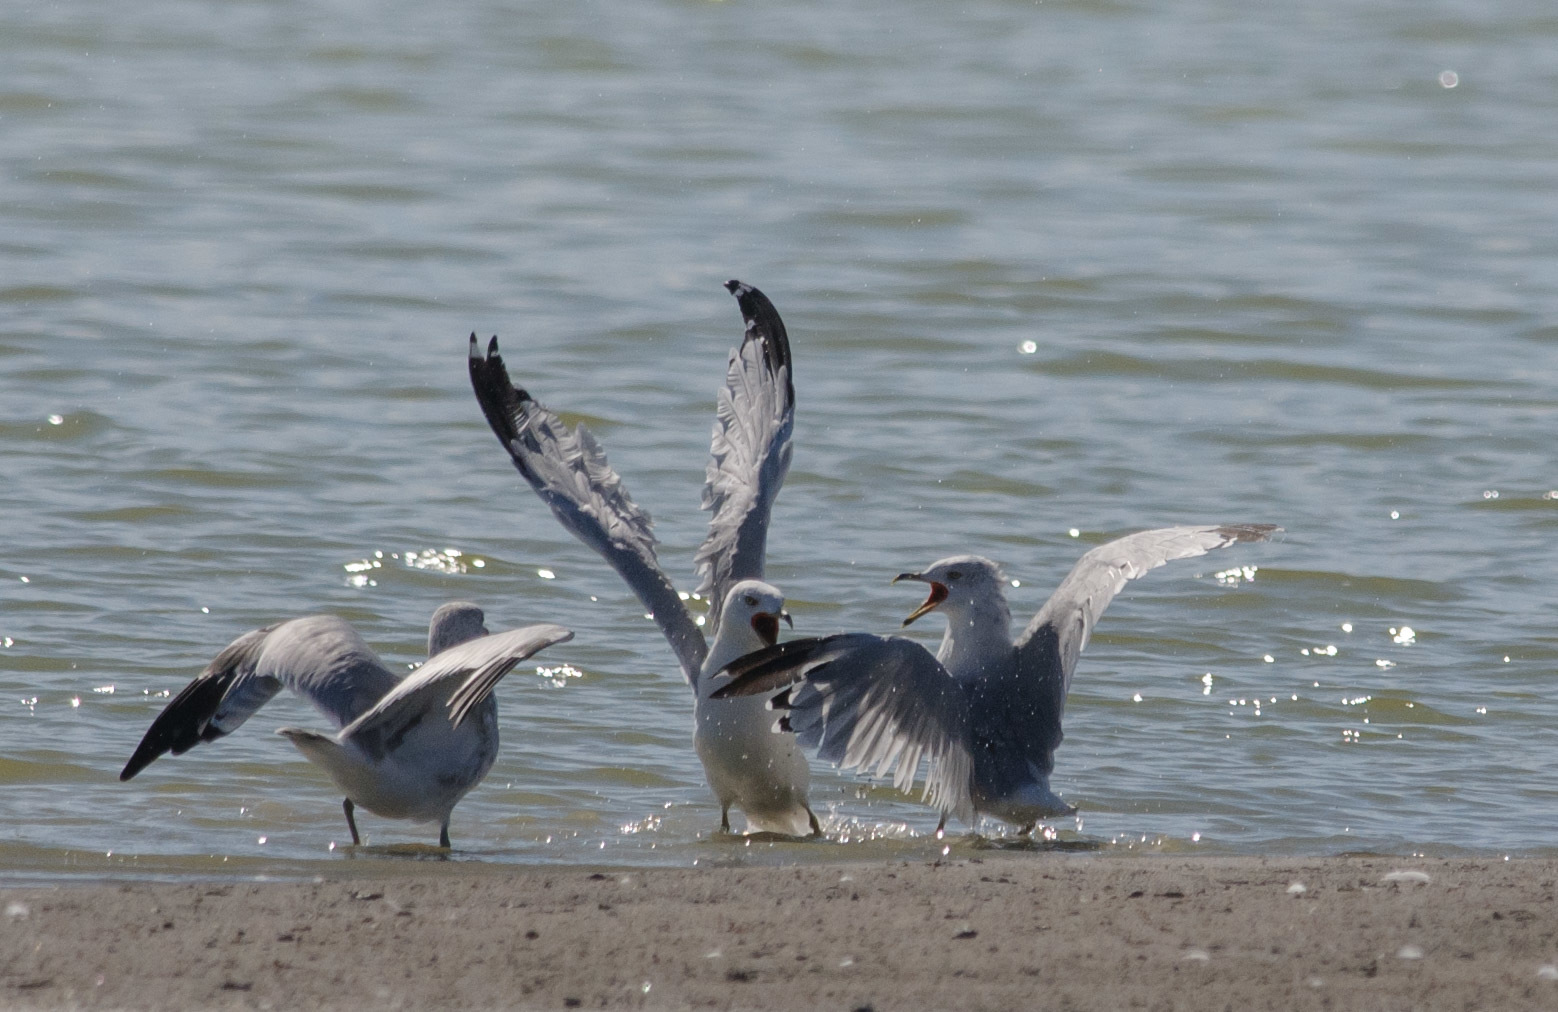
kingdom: Animalia
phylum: Chordata
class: Aves
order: Charadriiformes
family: Laridae
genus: Larus
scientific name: Larus delawarensis
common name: Ring-billed gull
